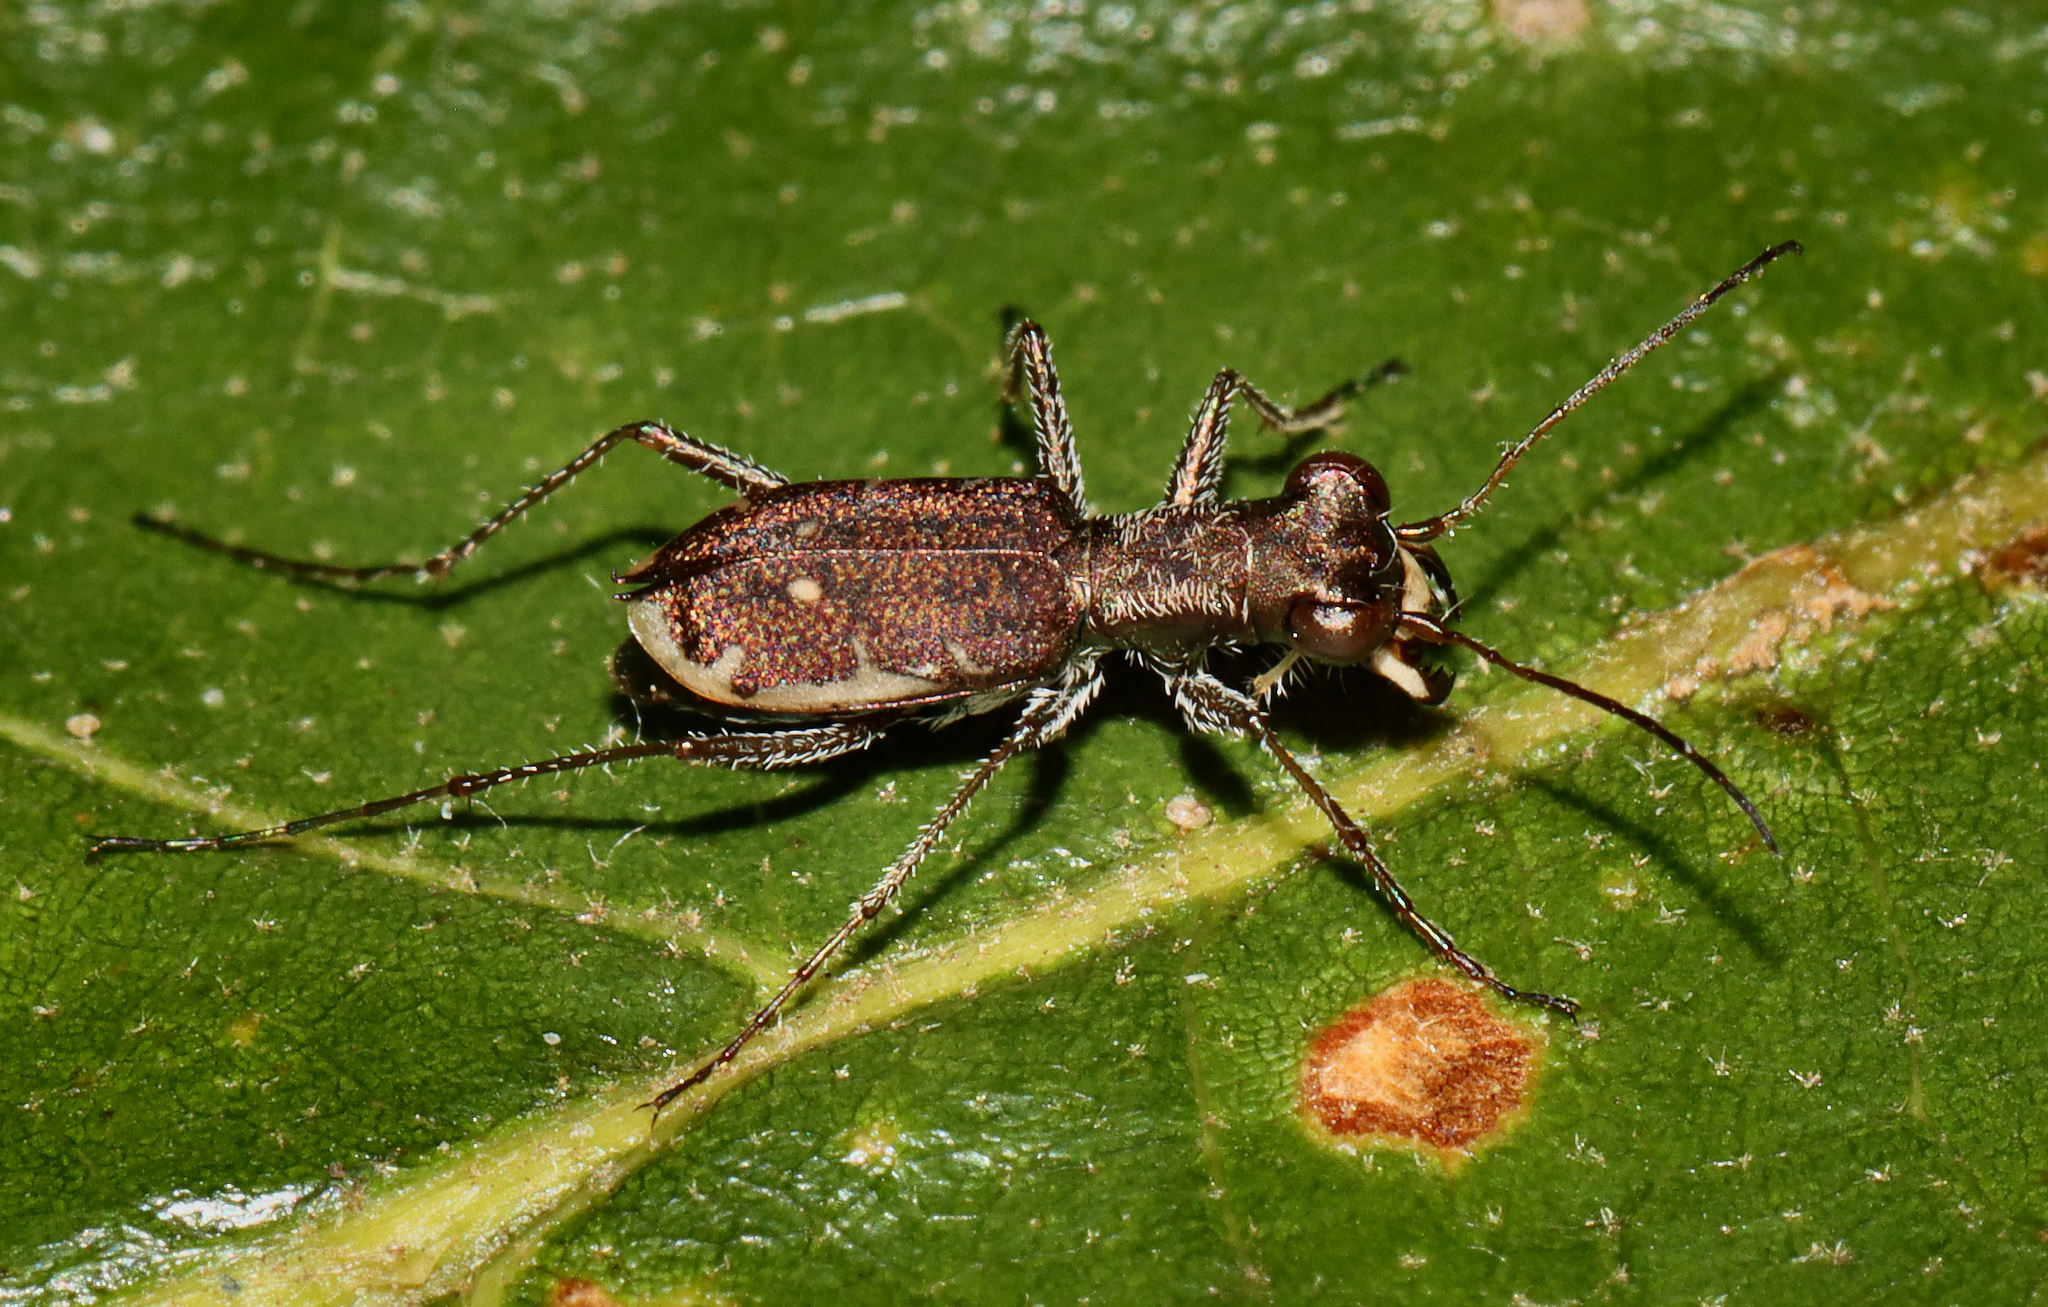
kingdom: Animalia
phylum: Arthropoda
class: Insecta
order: Coleoptera
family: Carabidae
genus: Cylindera
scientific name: Cylindera cursitans
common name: Ant-like tiger beetle
